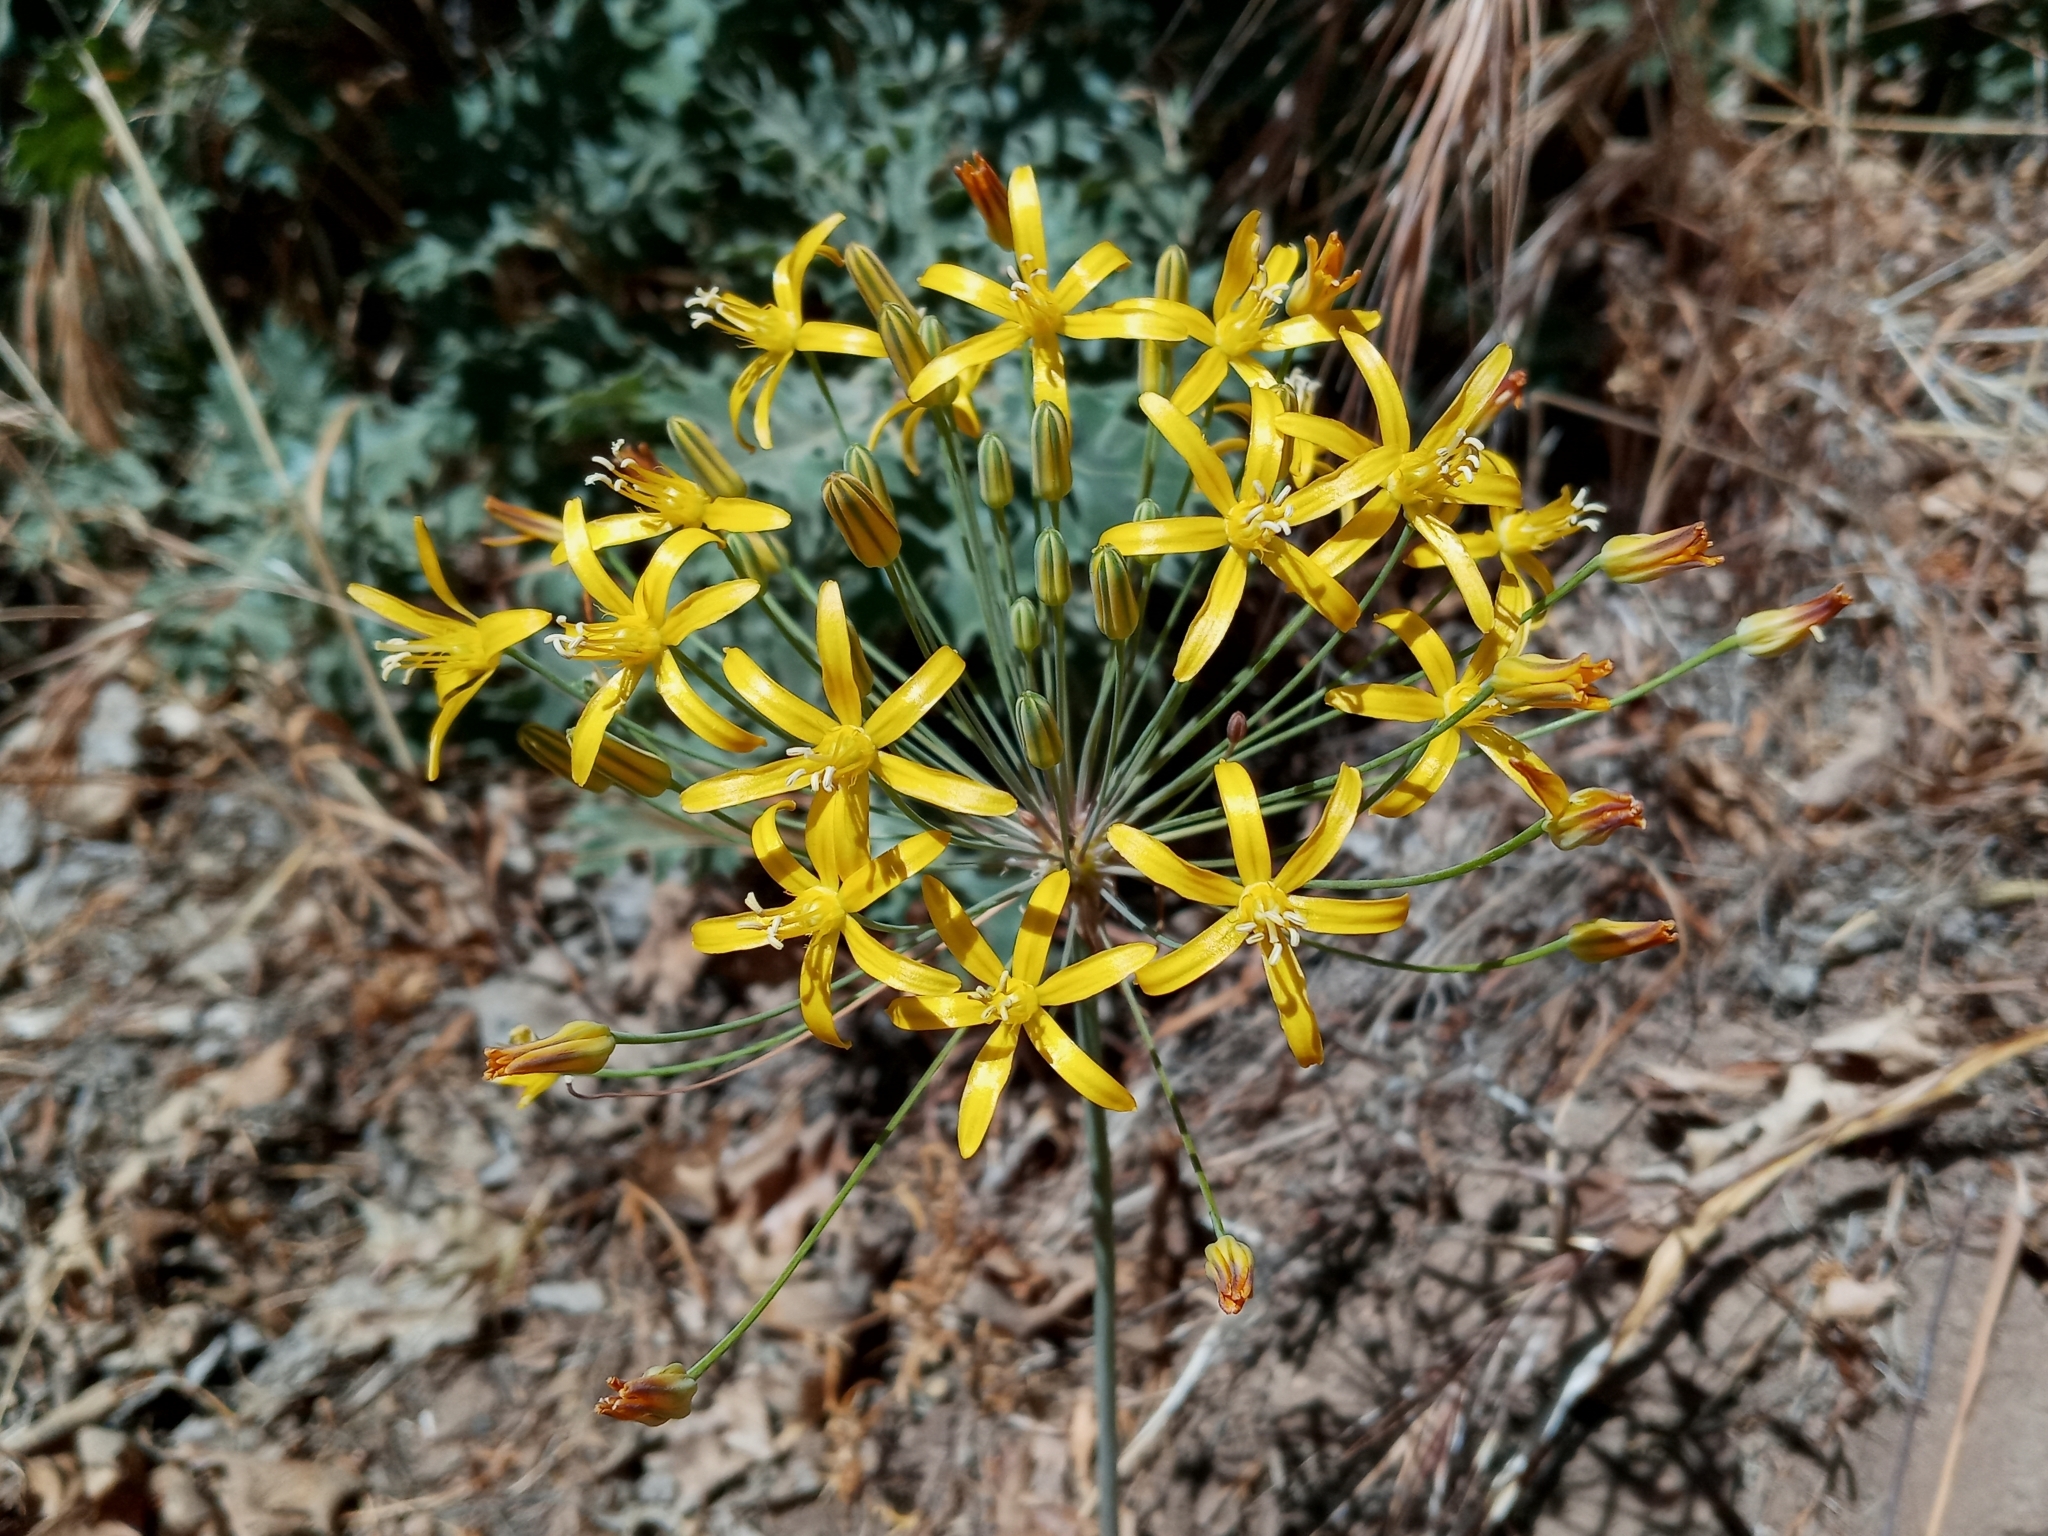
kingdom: Plantae
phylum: Tracheophyta
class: Liliopsida
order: Asparagales
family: Asparagaceae
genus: Bloomeria
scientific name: Bloomeria crocea
